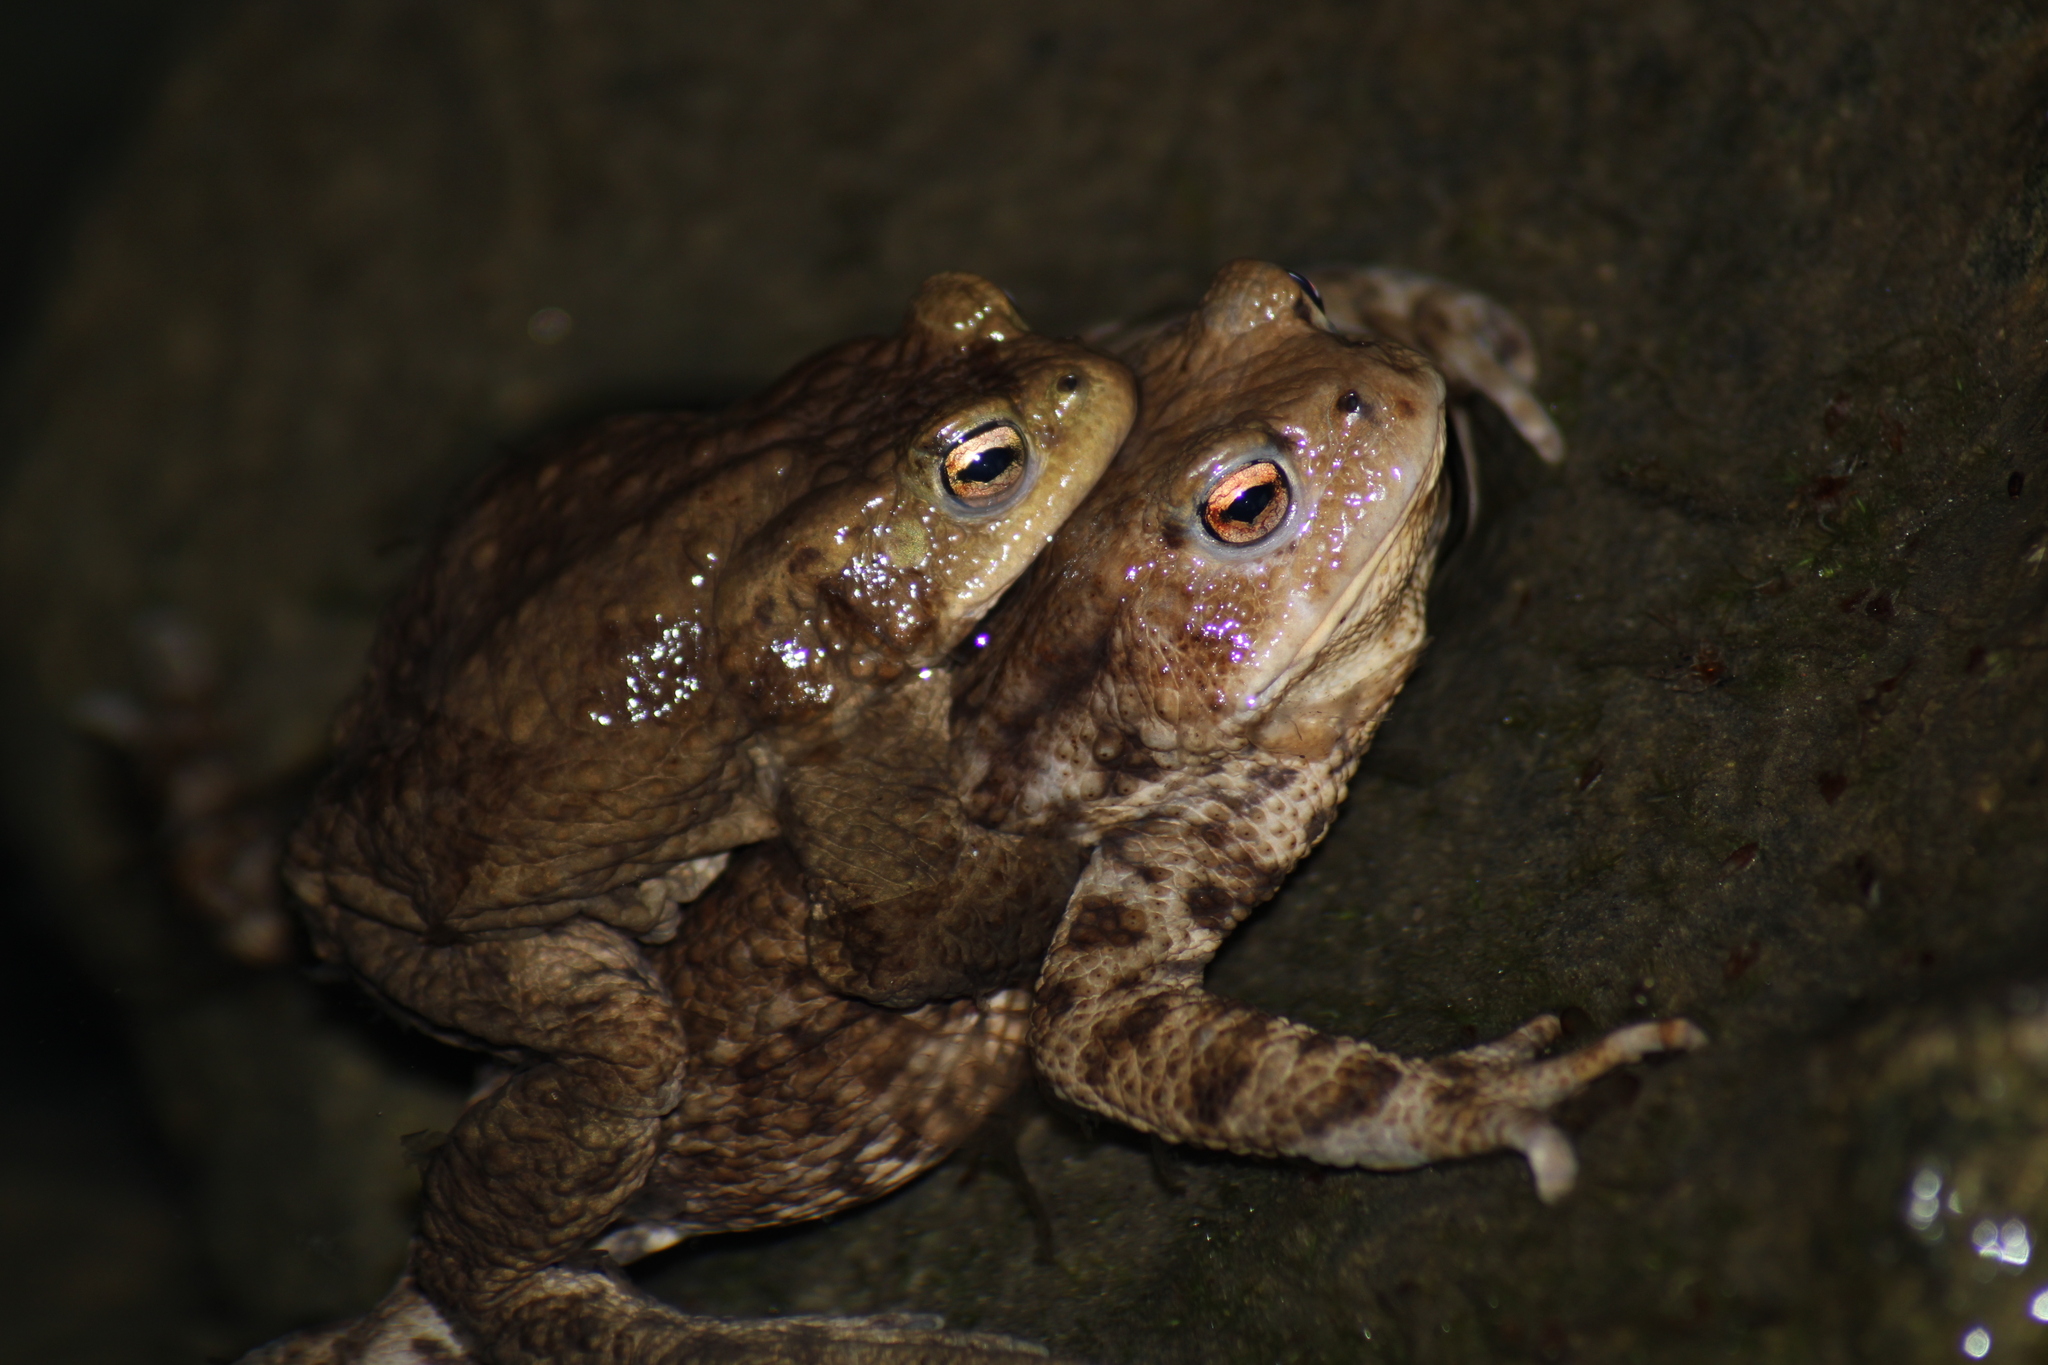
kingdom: Animalia
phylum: Chordata
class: Amphibia
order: Anura
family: Bufonidae
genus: Bufo
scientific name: Bufo bufo
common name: Common toad
